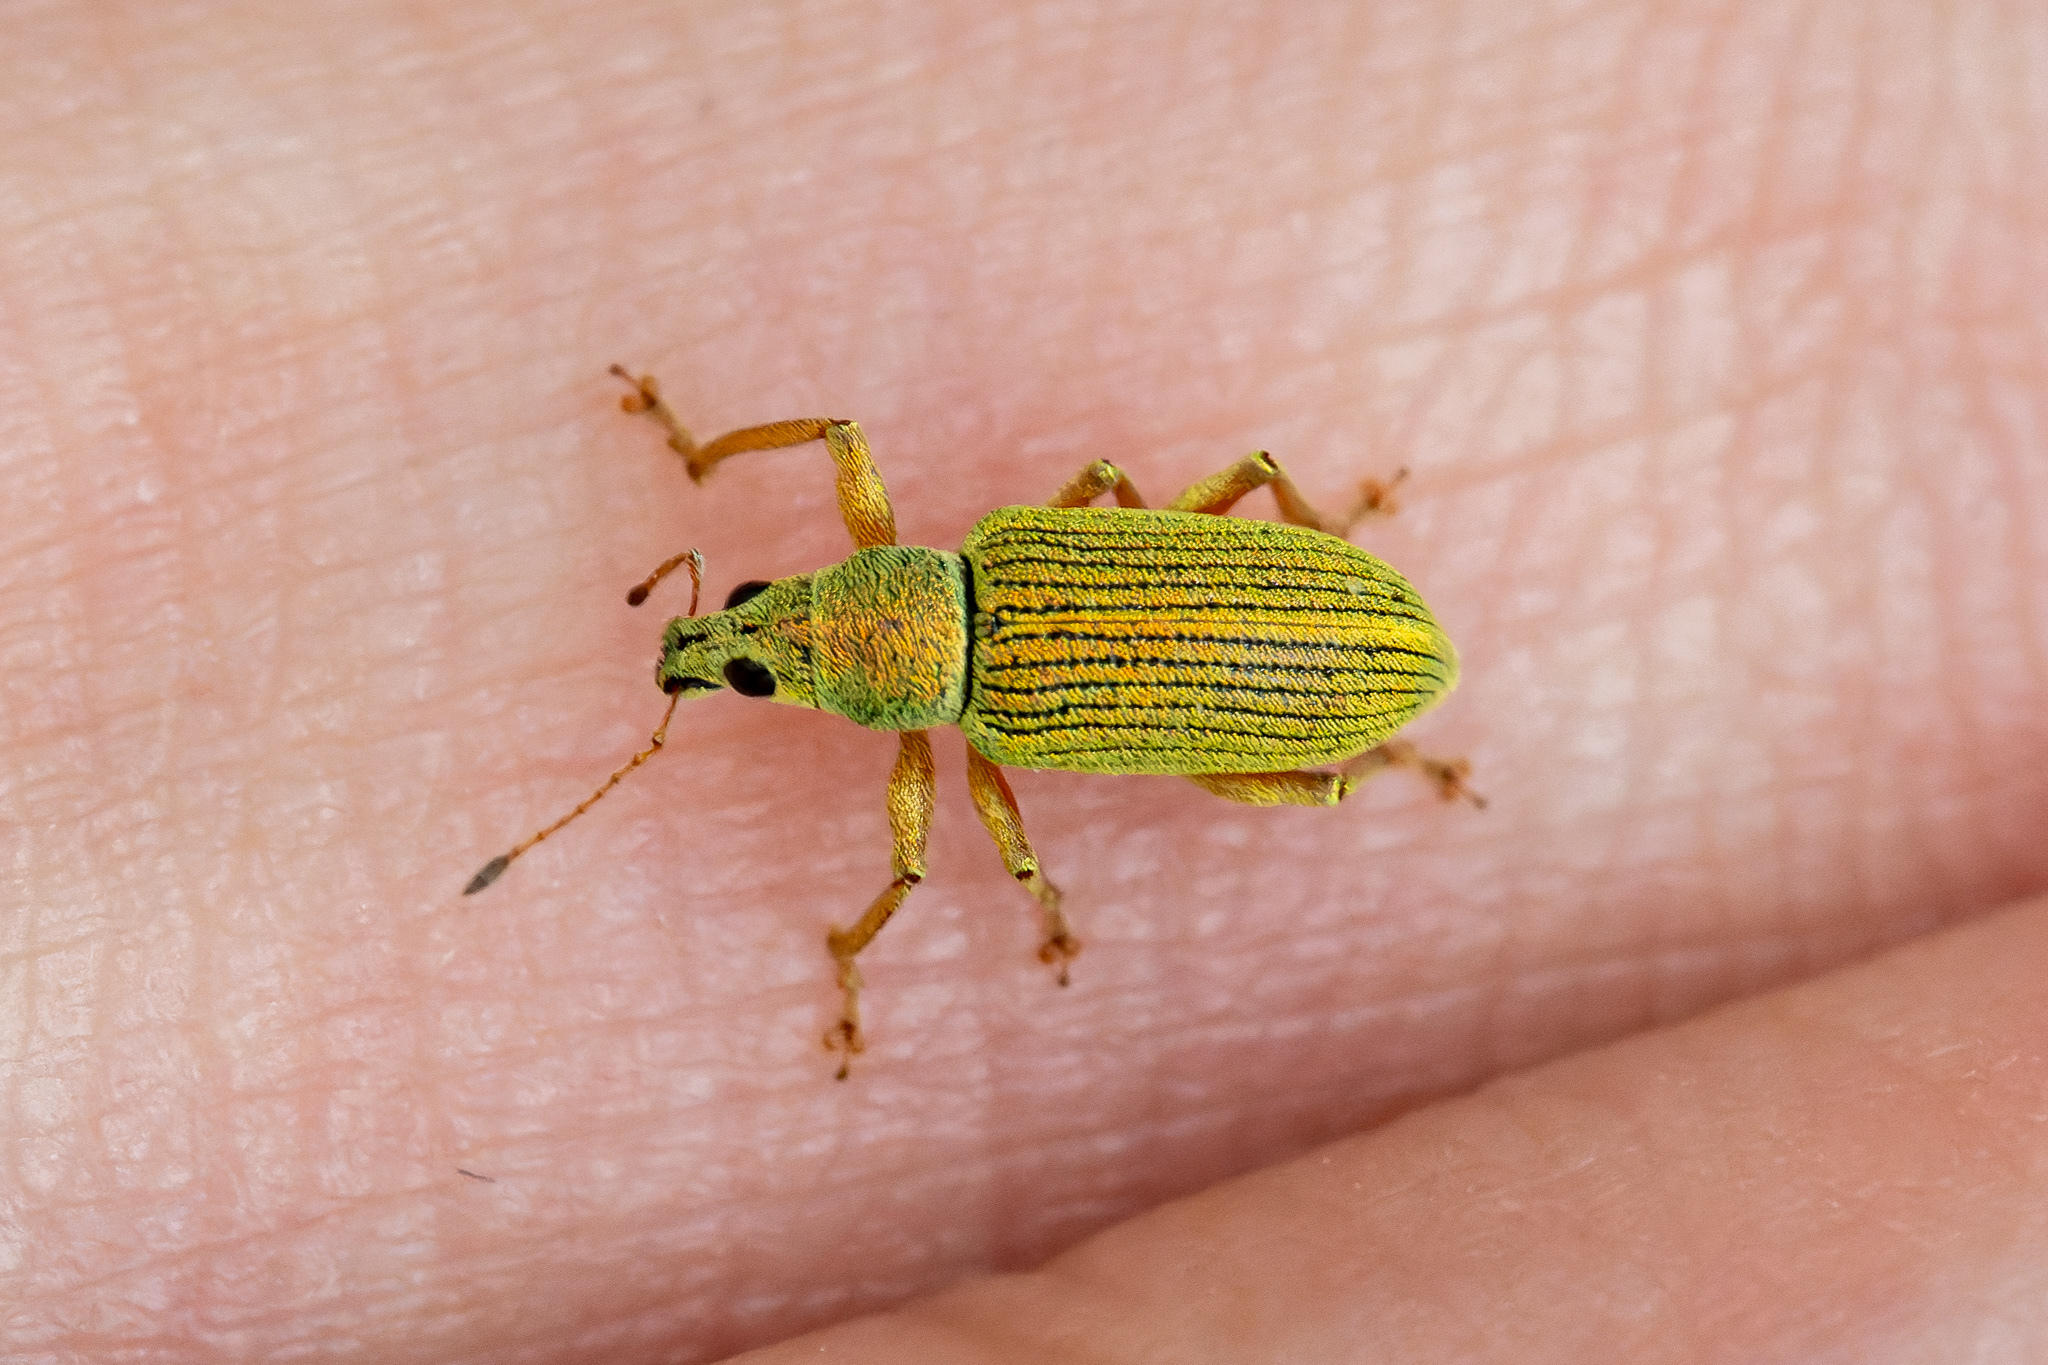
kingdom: Animalia
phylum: Arthropoda
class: Insecta
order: Coleoptera
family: Curculionidae
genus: Polydrusus
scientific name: Polydrusus formosus
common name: Weevil
